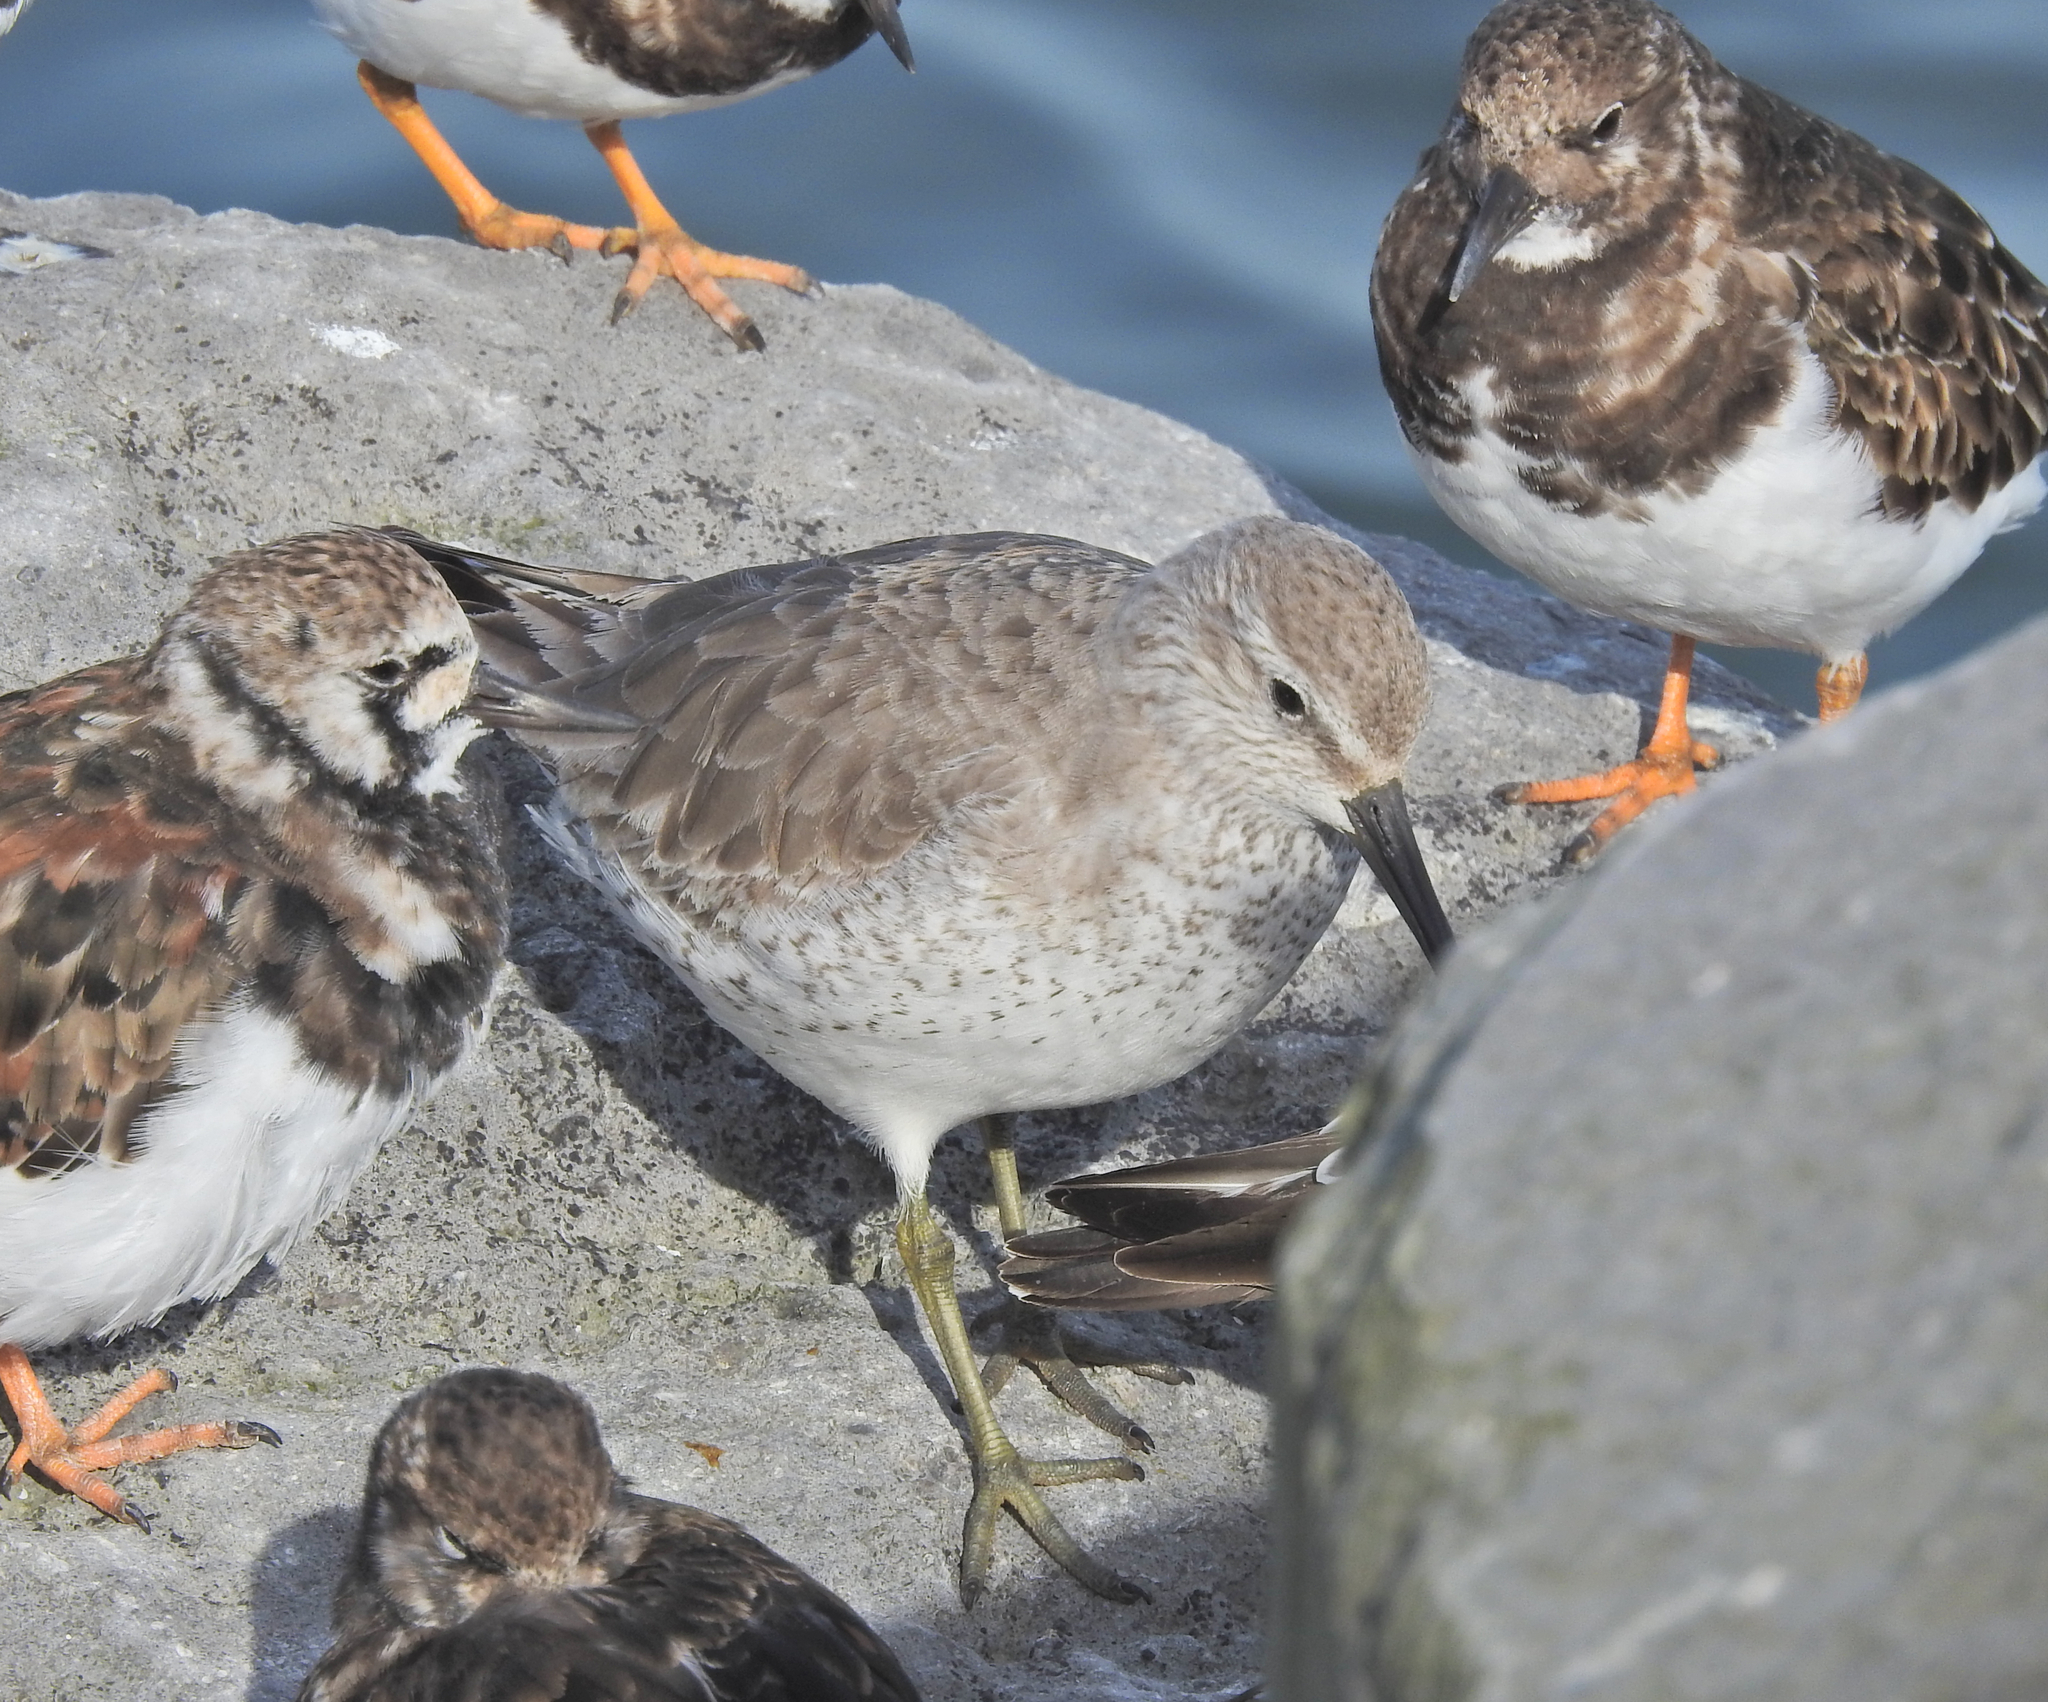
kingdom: Animalia
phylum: Chordata
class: Aves
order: Charadriiformes
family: Scolopacidae
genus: Calidris
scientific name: Calidris canutus
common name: Red knot
